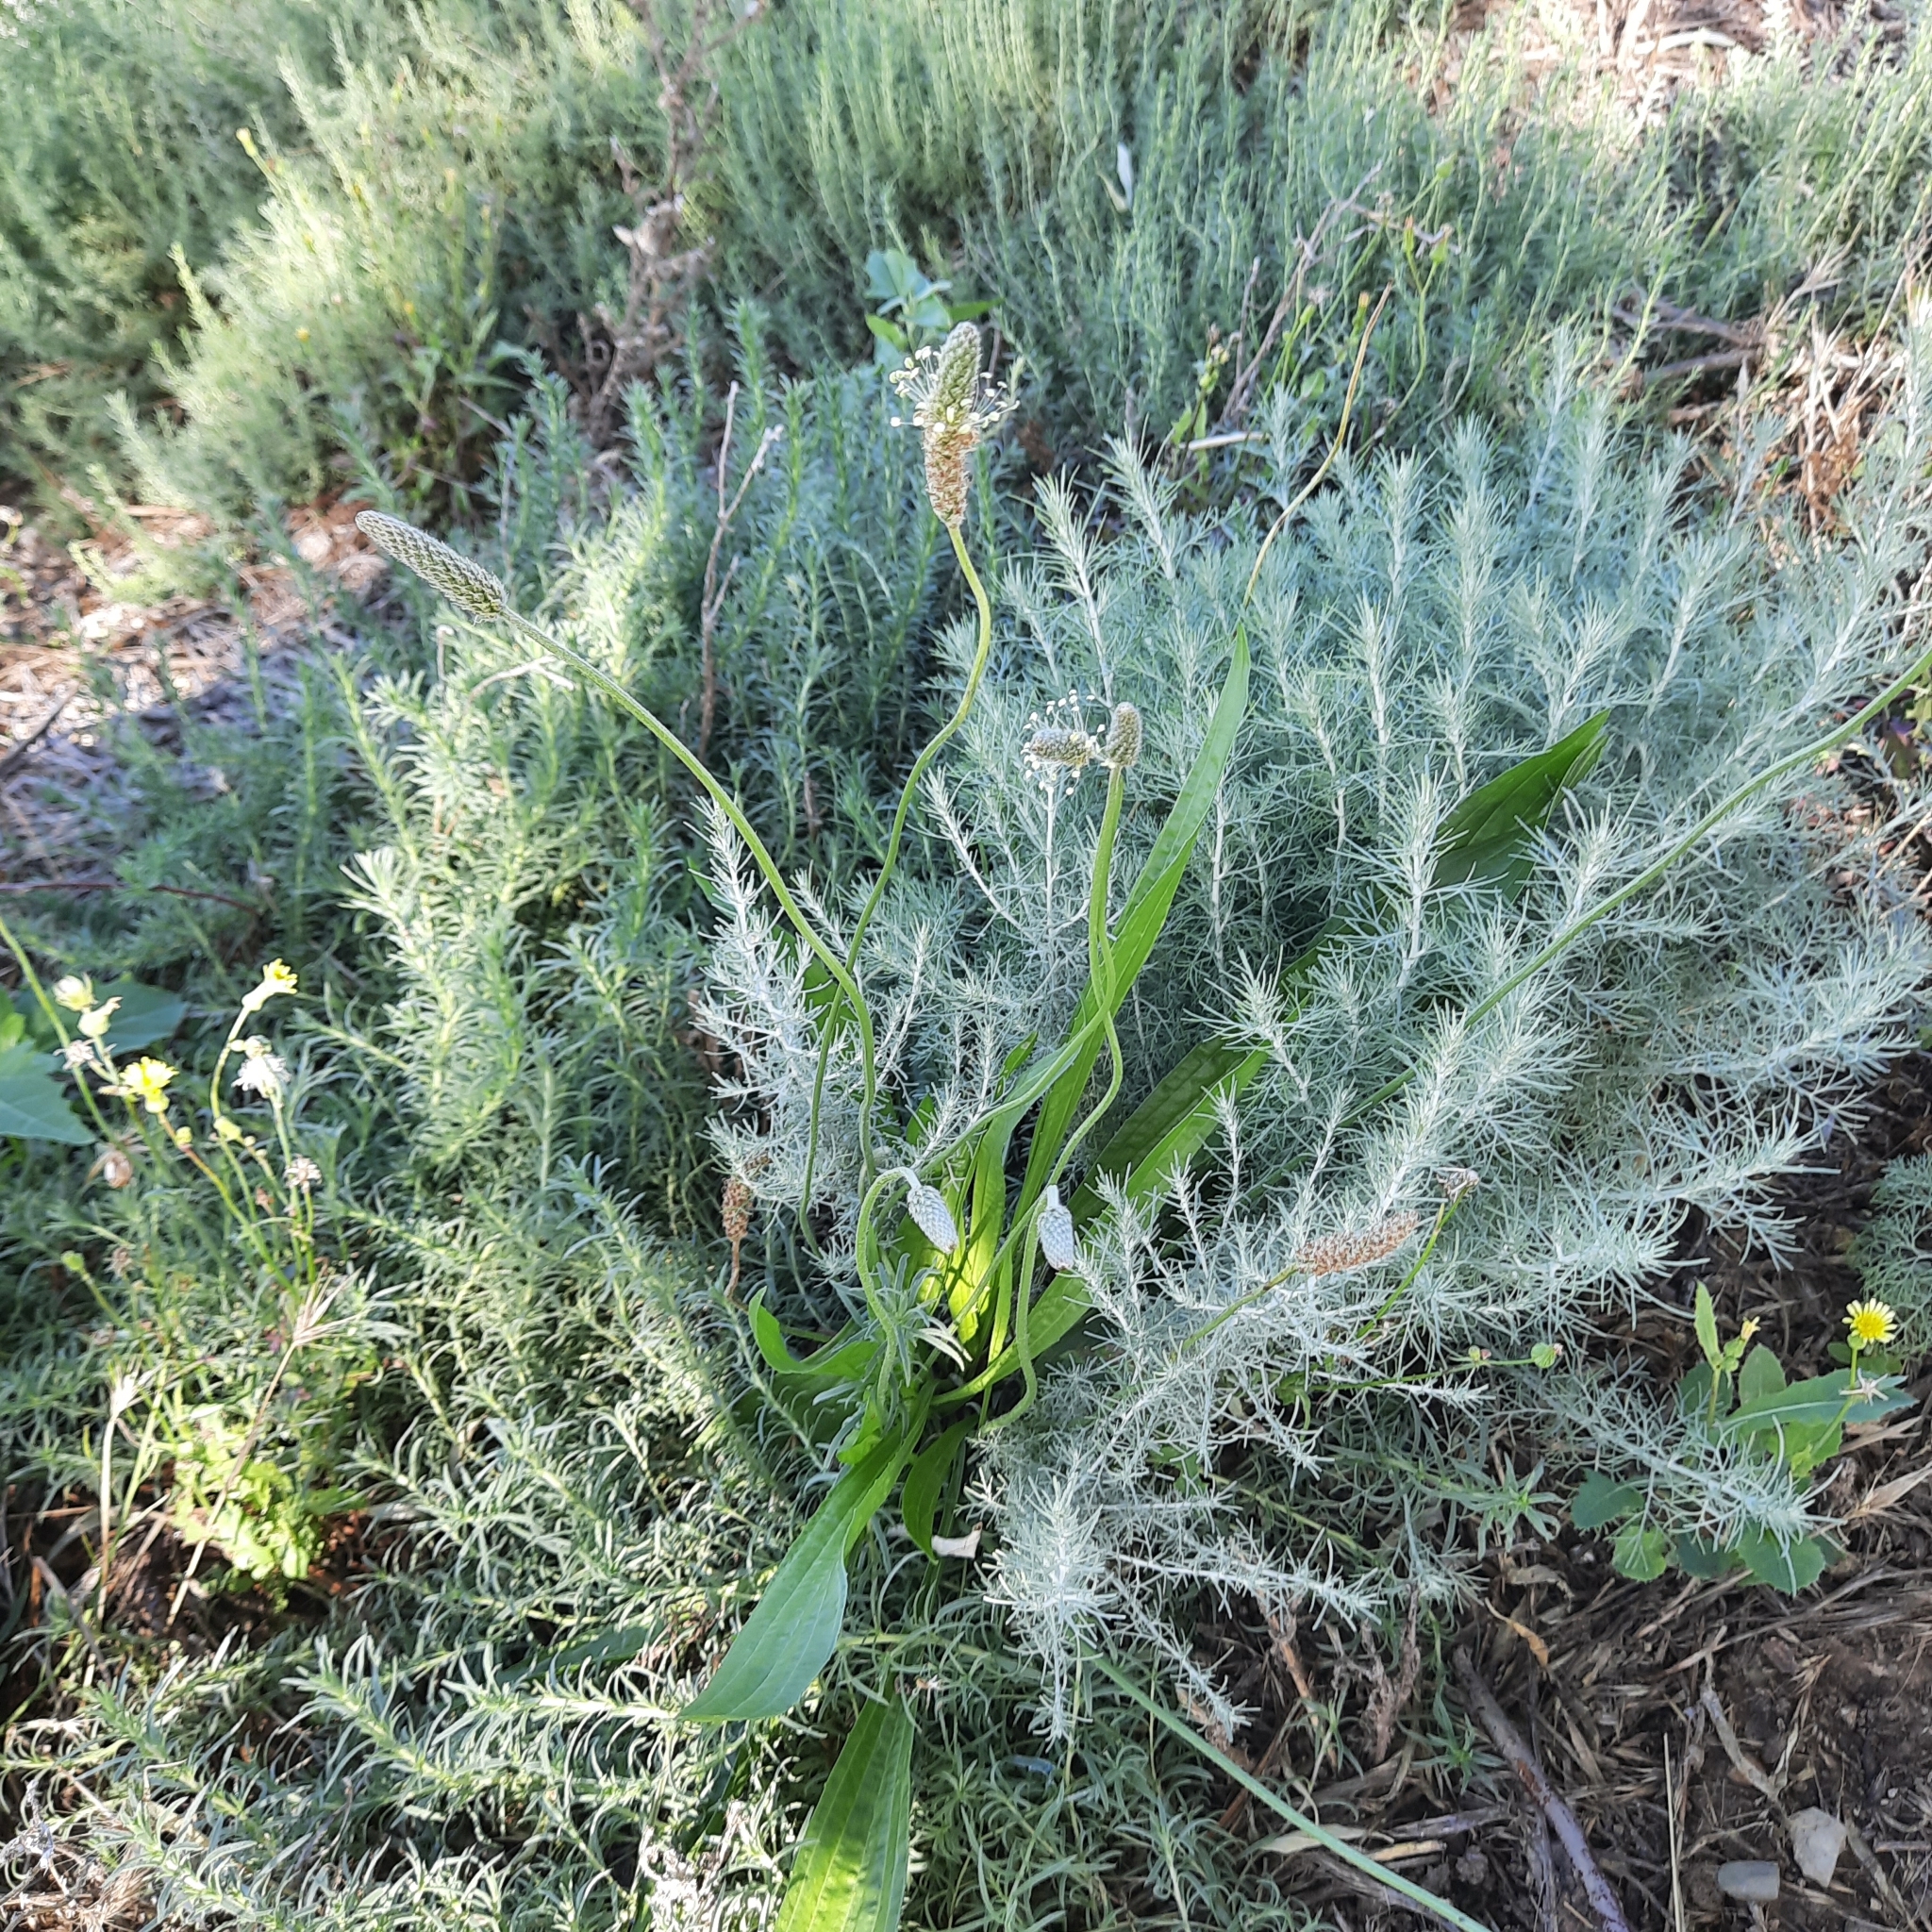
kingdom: Plantae
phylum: Tracheophyta
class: Magnoliopsida
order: Lamiales
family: Plantaginaceae
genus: Plantago
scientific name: Plantago lanceolata
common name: Ribwort plantain
